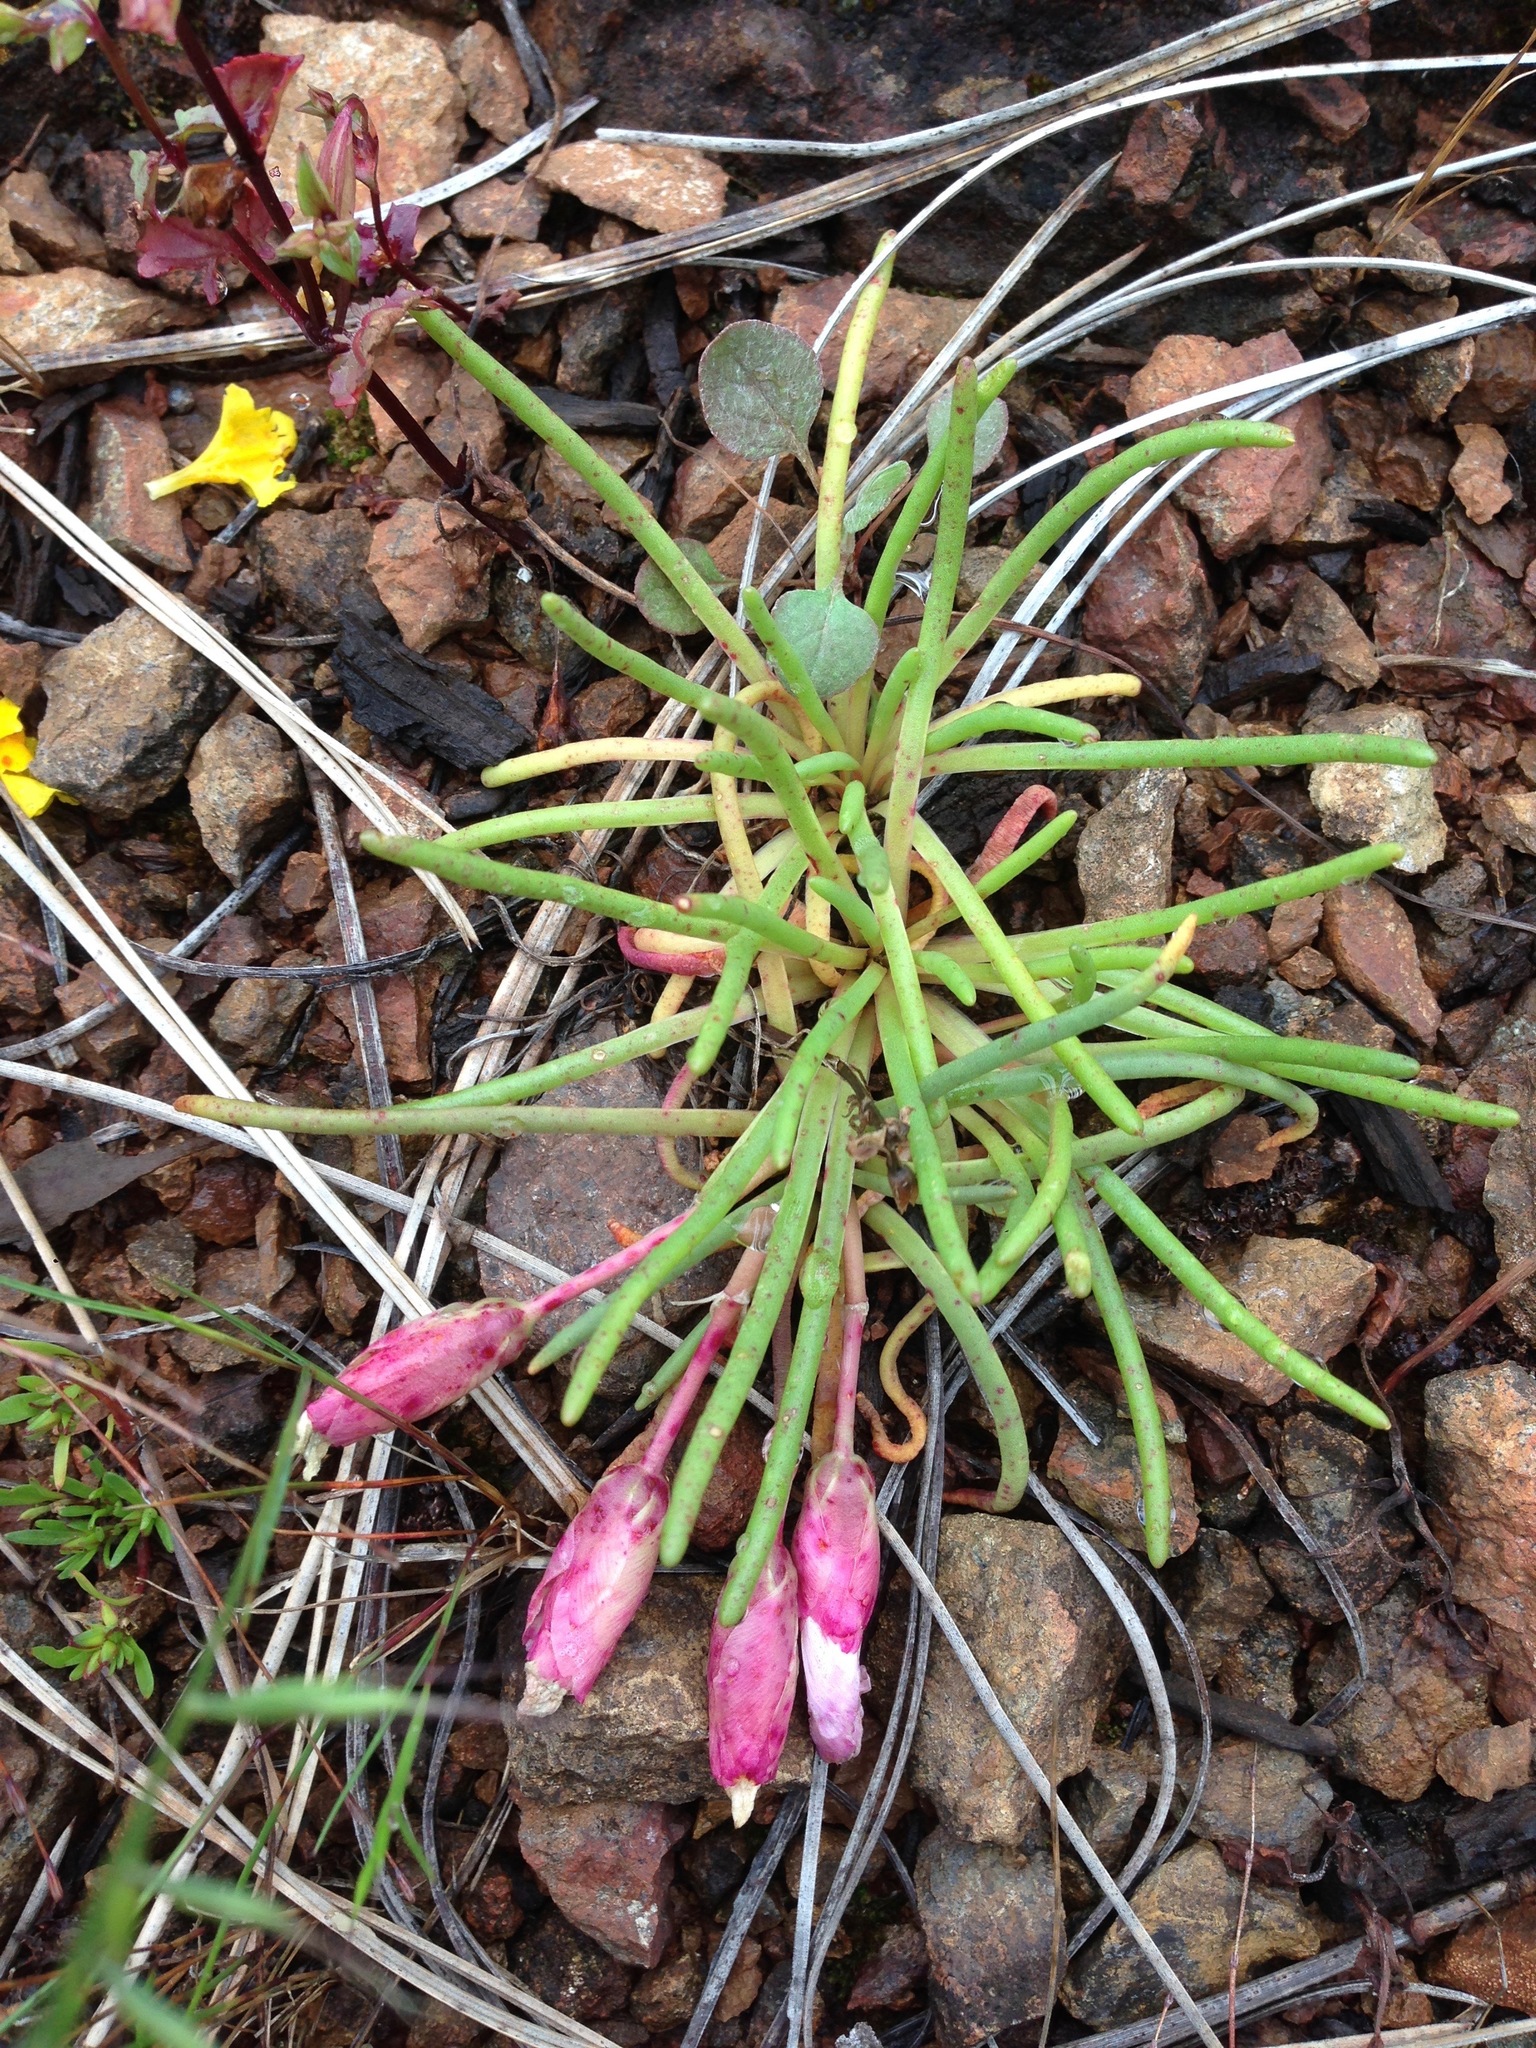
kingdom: Plantae
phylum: Tracheophyta
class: Magnoliopsida
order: Caryophyllales
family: Montiaceae
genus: Lewisia
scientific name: Lewisia rediviva
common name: Bitter-root
